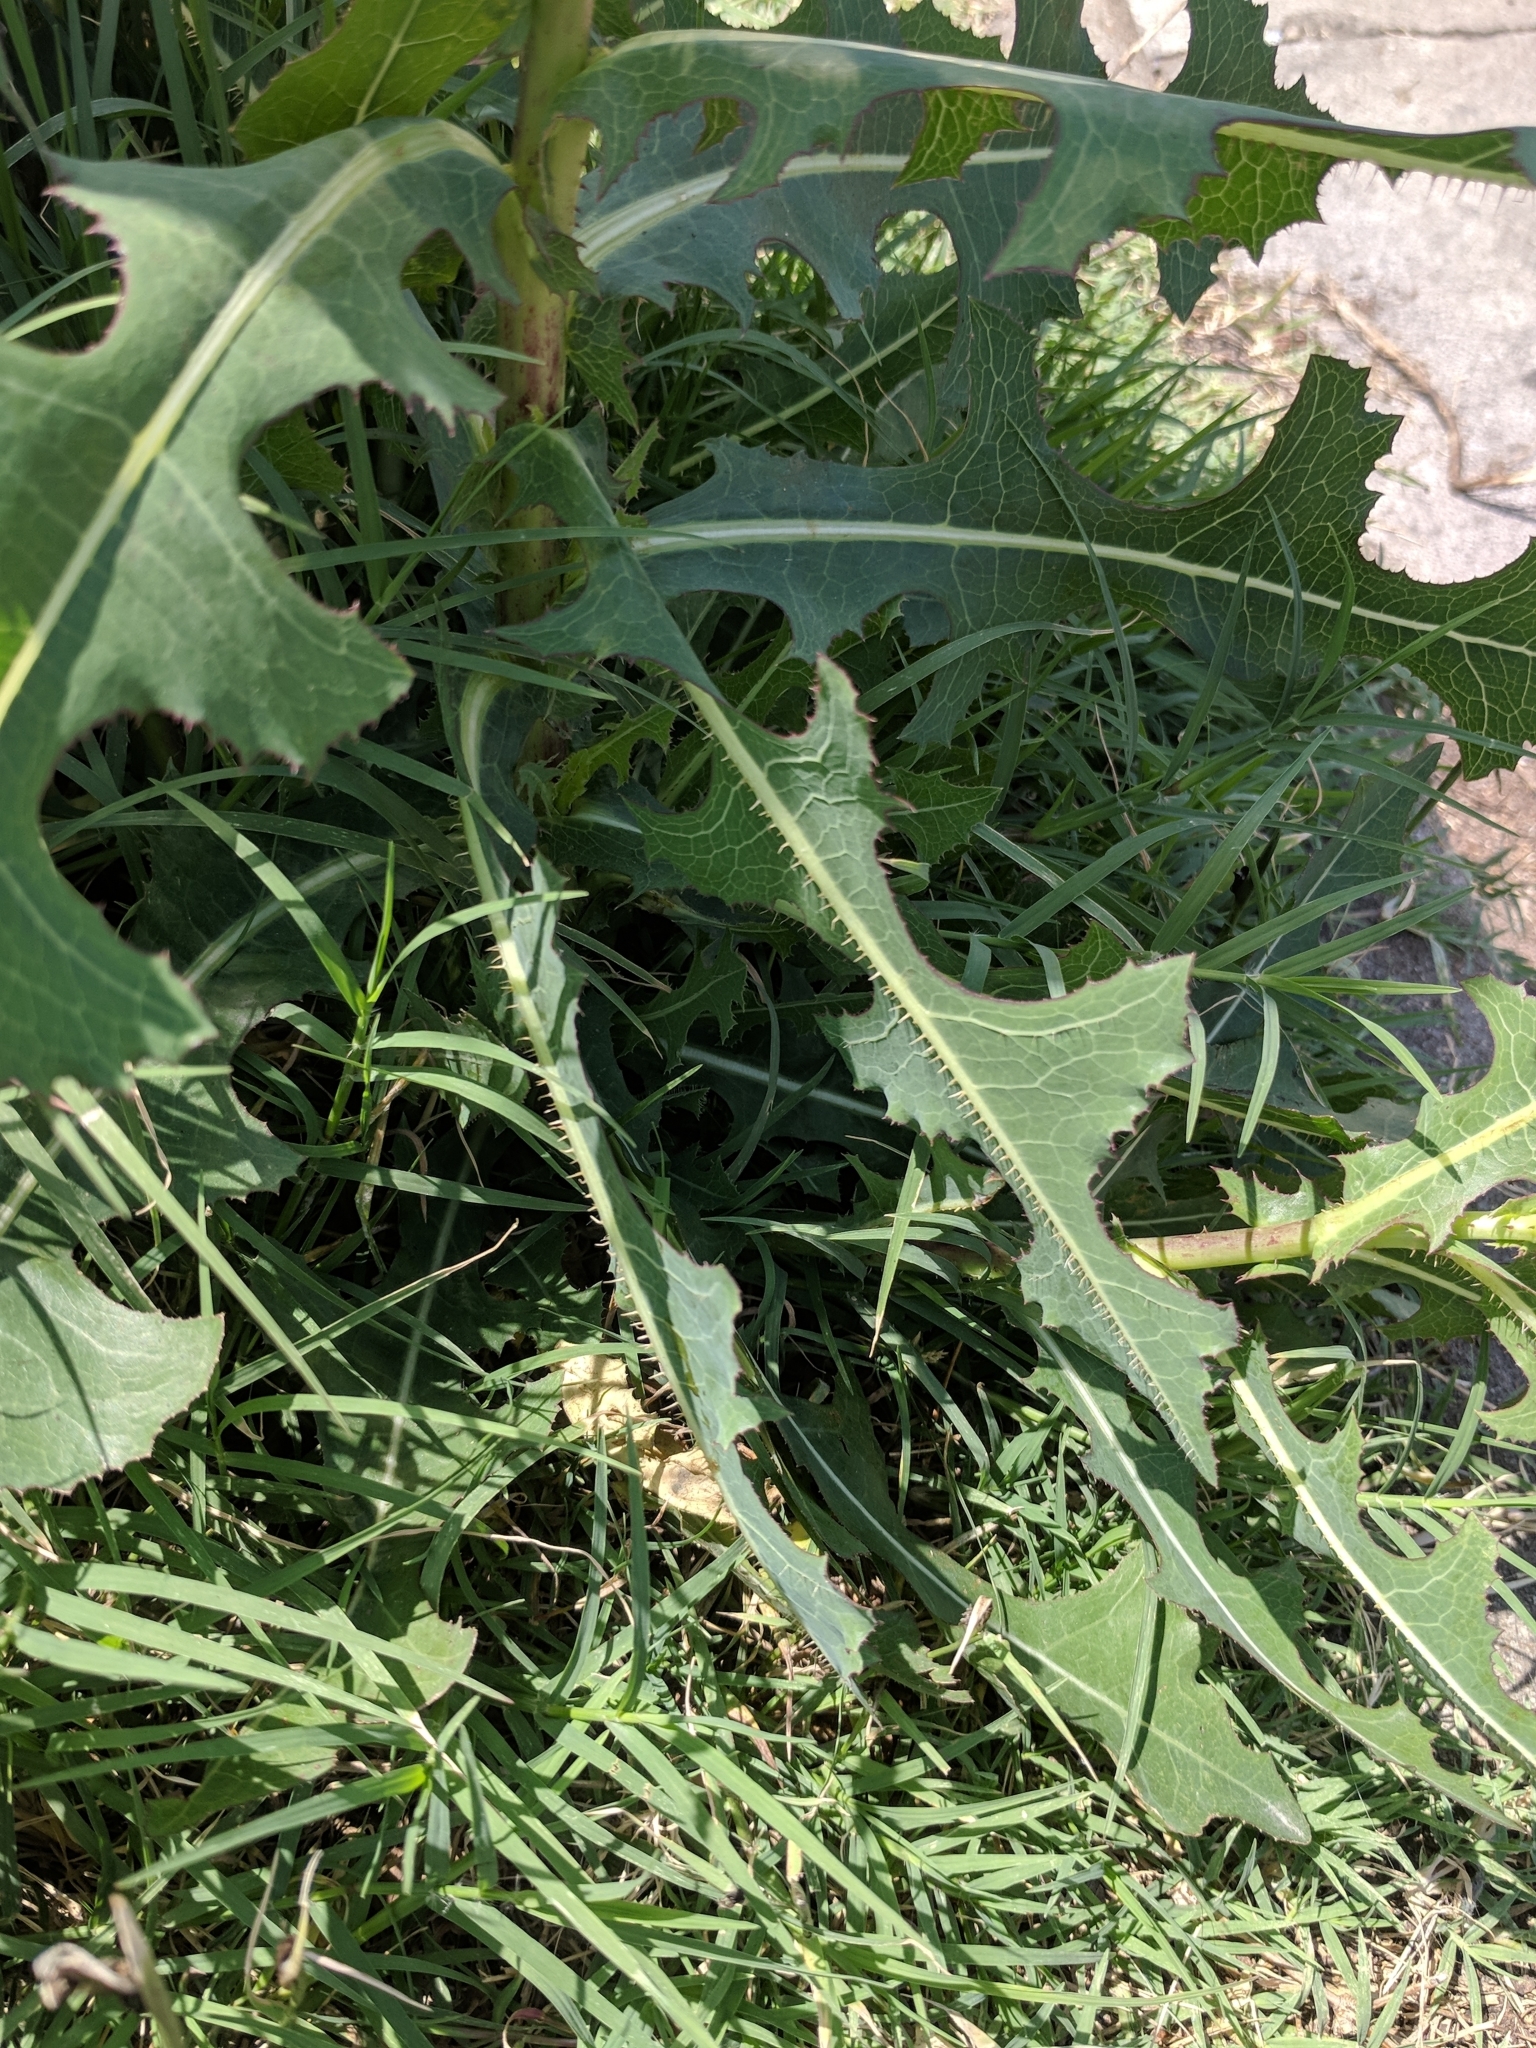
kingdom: Plantae
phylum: Tracheophyta
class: Magnoliopsida
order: Asterales
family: Asteraceae
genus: Lactuca
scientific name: Lactuca serriola
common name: Prickly lettuce
